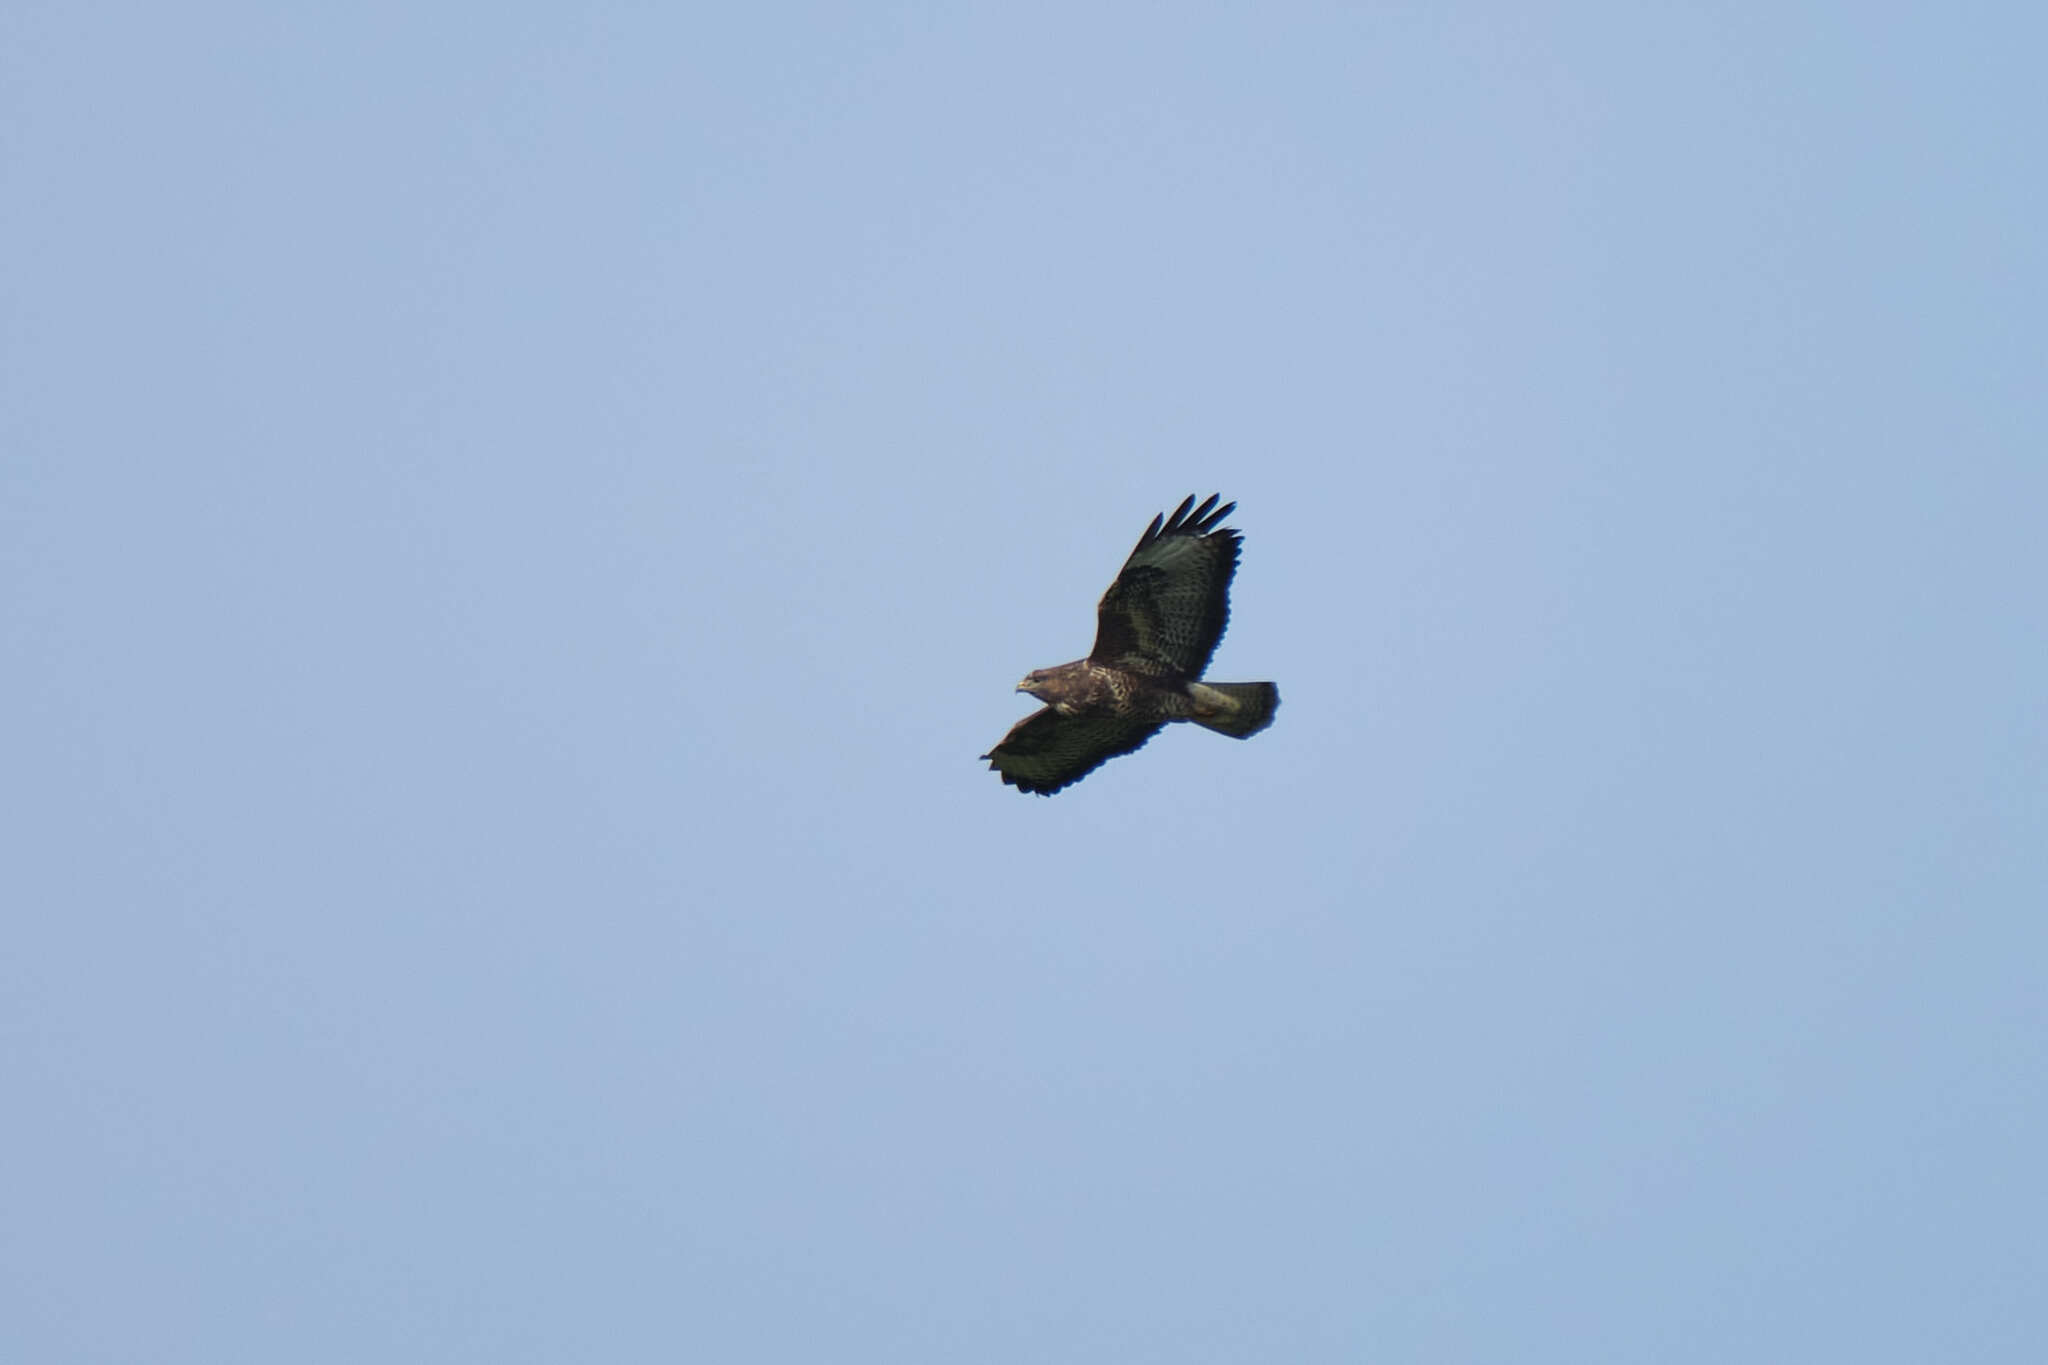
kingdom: Animalia
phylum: Chordata
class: Aves
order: Accipitriformes
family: Accipitridae
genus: Buteo
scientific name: Buteo buteo
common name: Common buzzard
